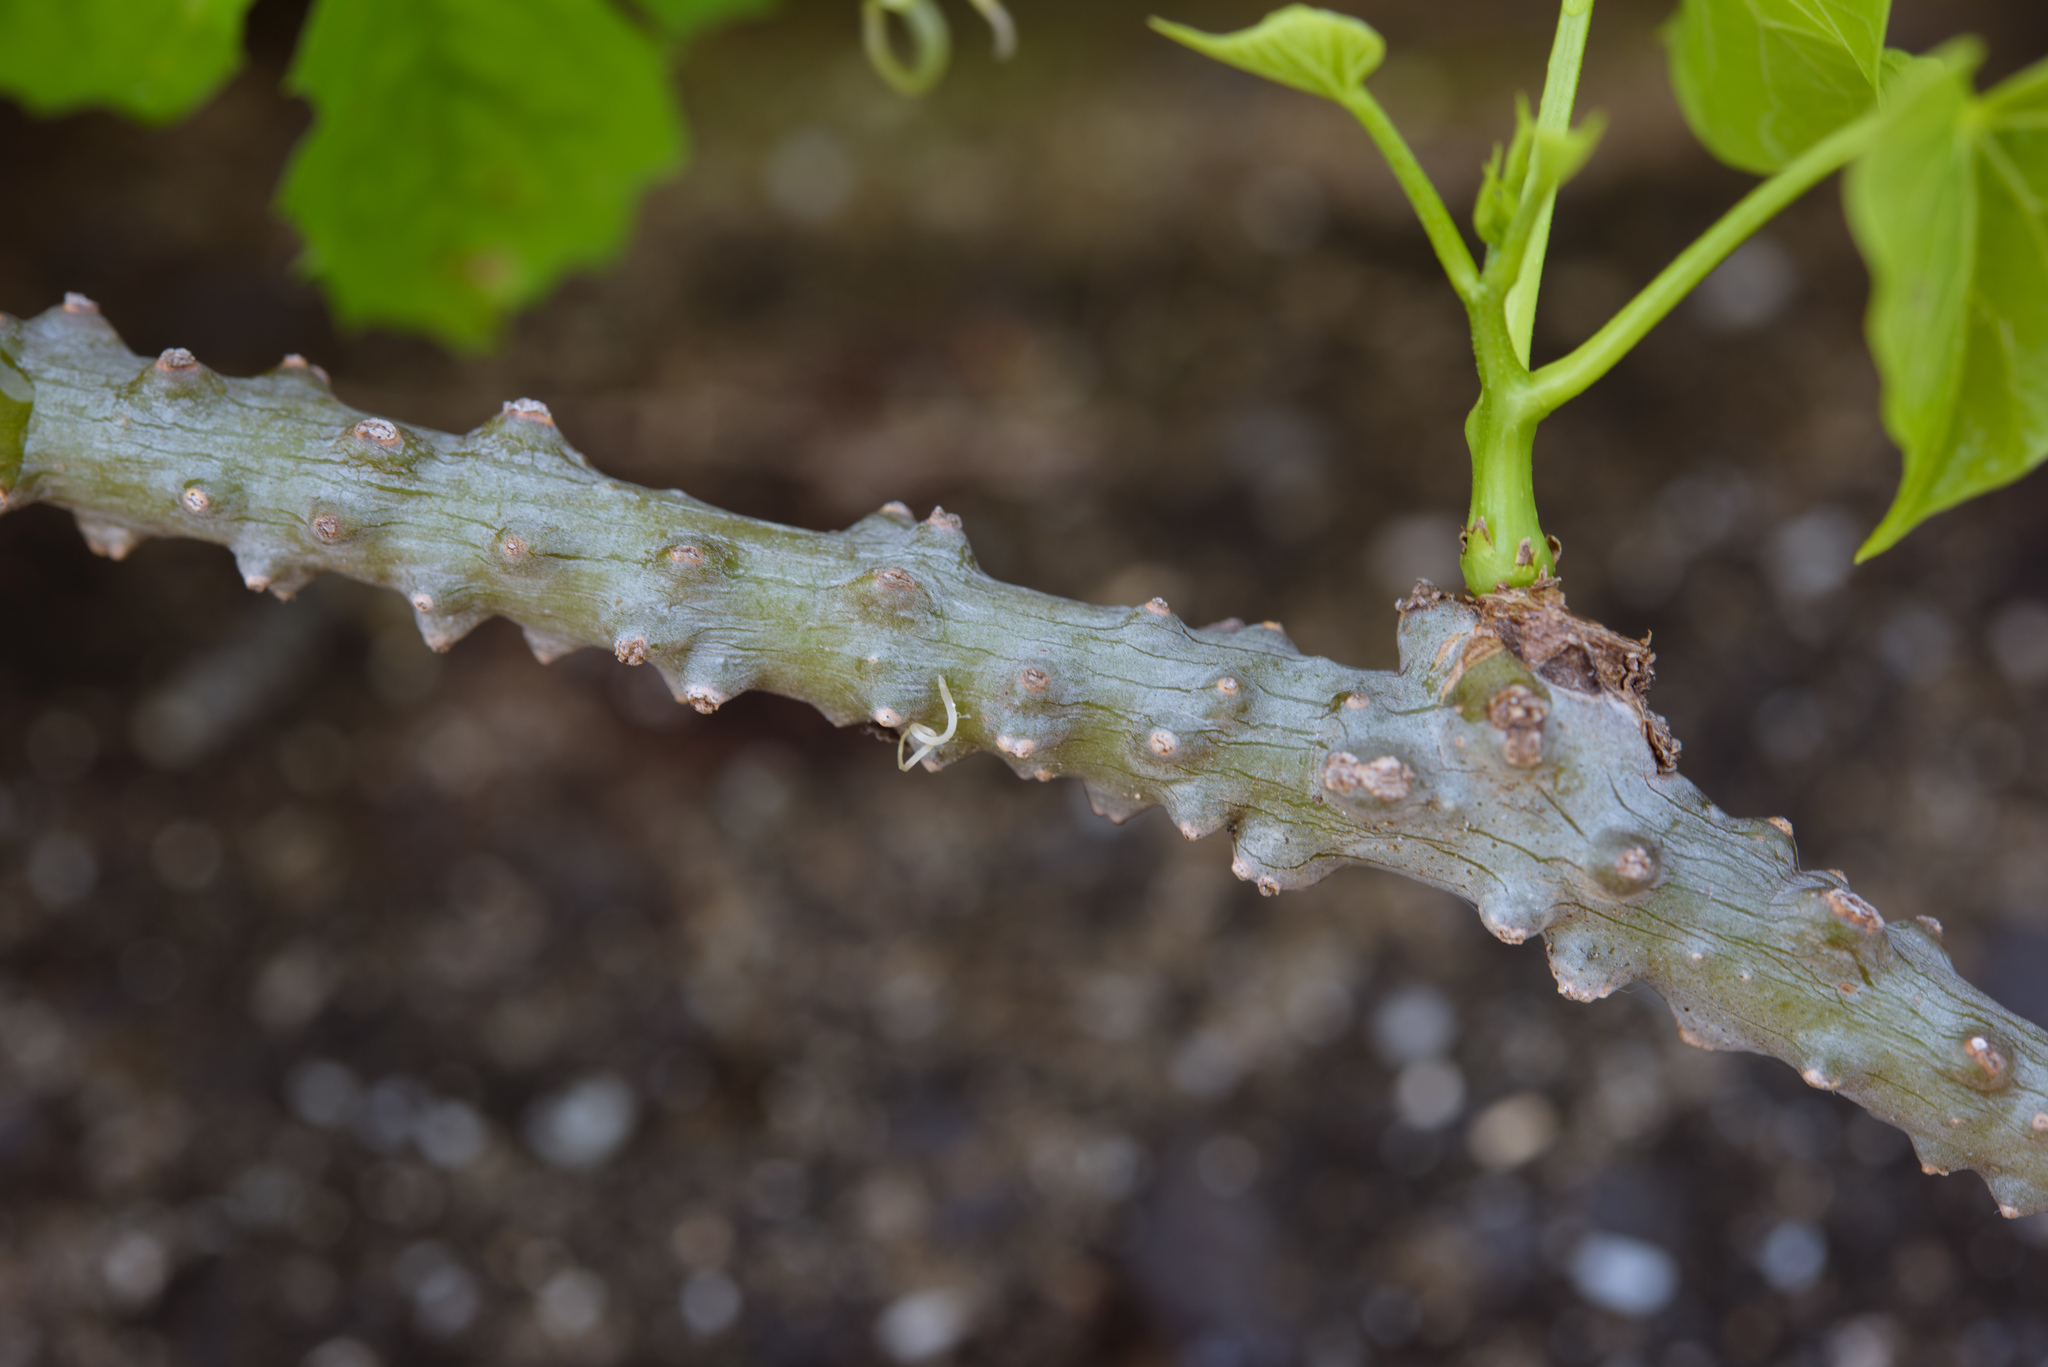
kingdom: Plantae
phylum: Tracheophyta
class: Magnoliopsida
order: Ranunculales
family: Menispermaceae
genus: Tinospora
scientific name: Tinospora crispa
